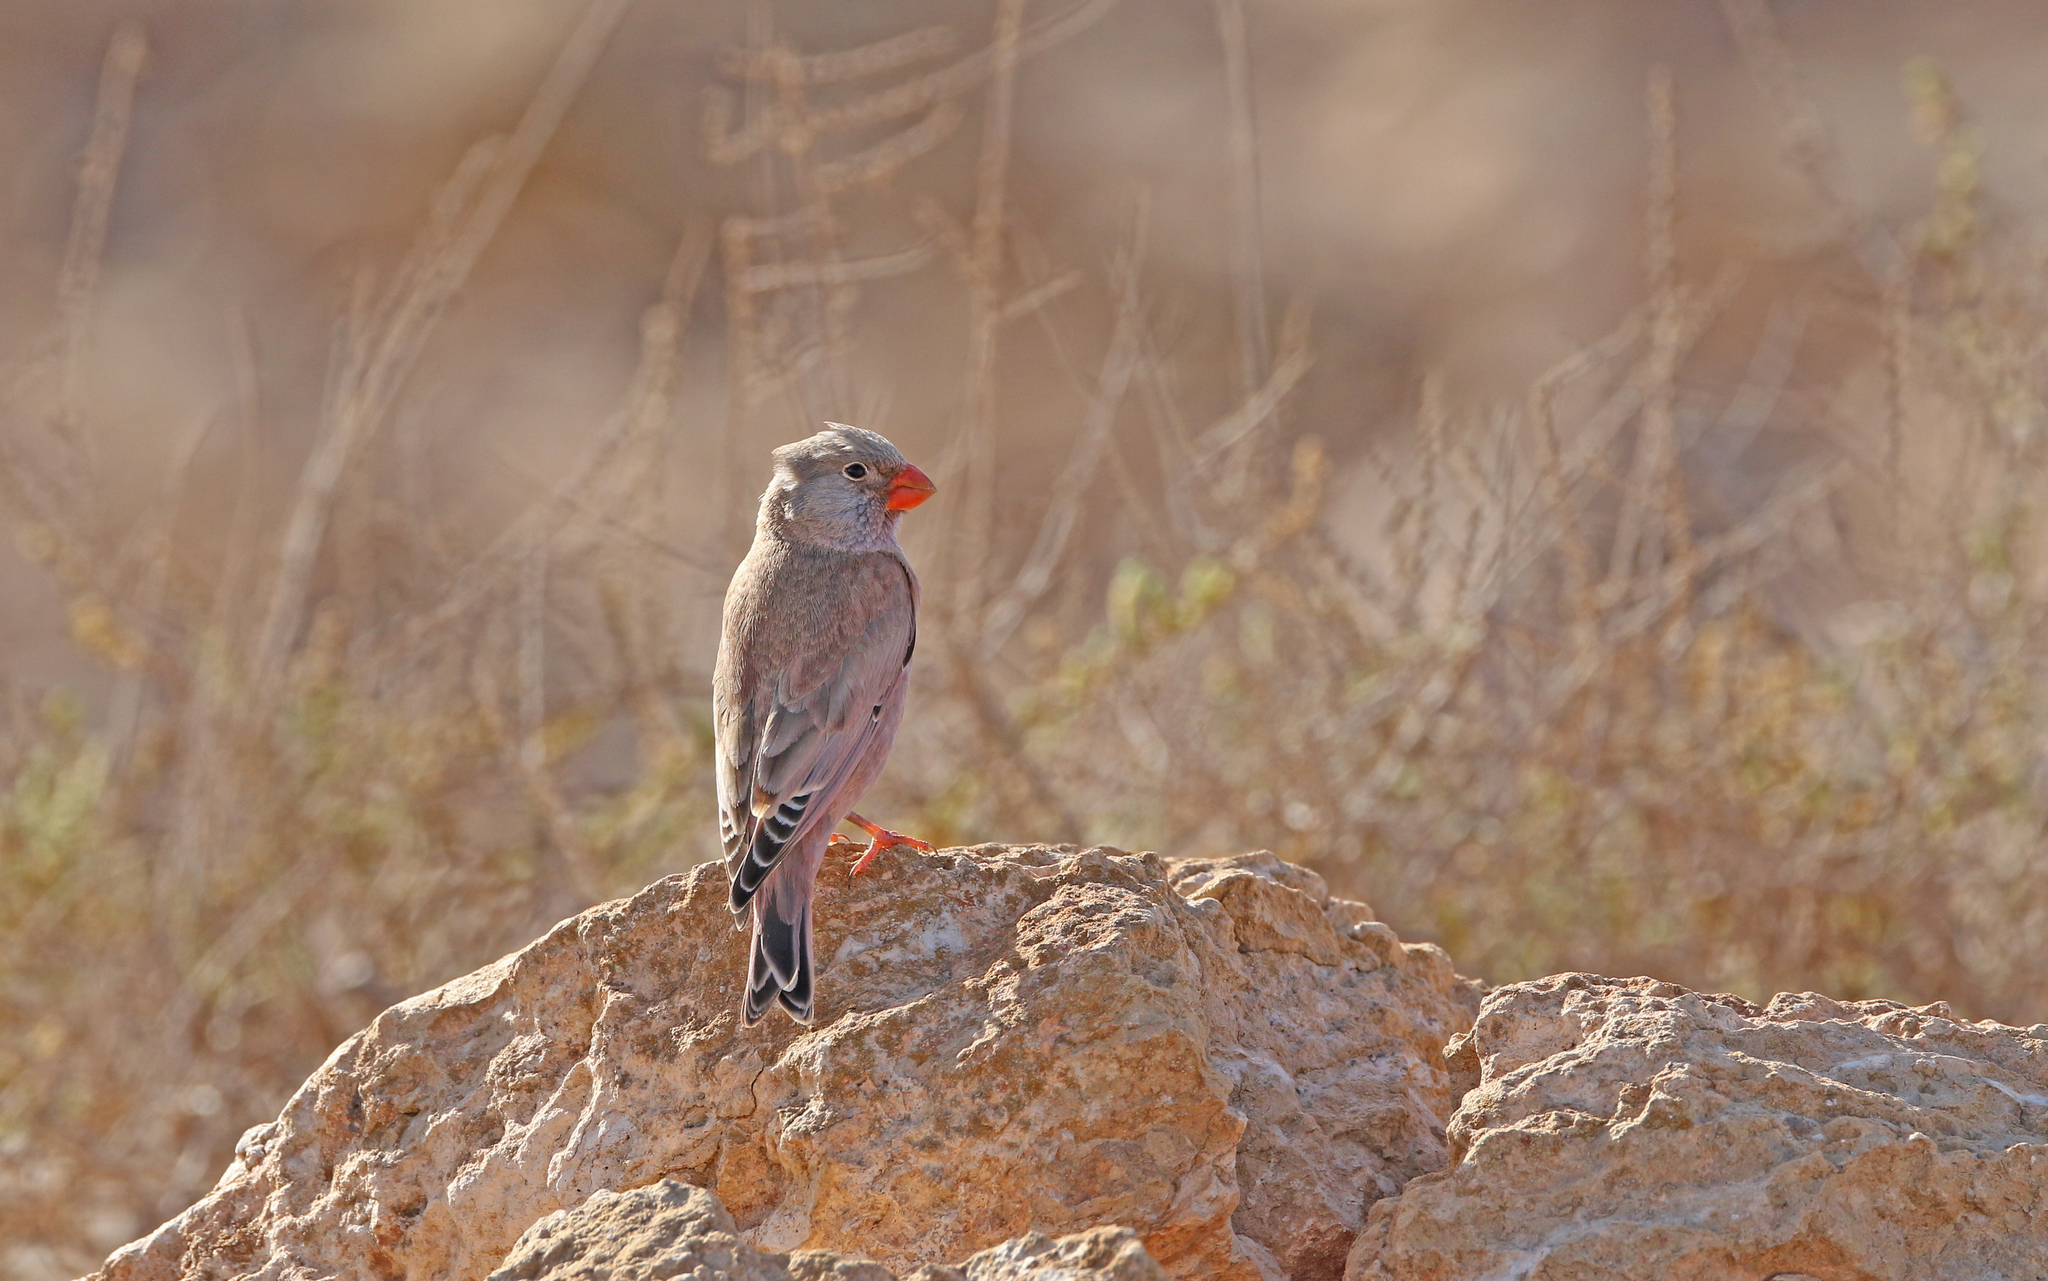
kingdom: Animalia
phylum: Chordata
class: Aves
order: Passeriformes
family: Fringillidae
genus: Bucanetes
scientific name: Bucanetes githagineus
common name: Trumpeter finch
